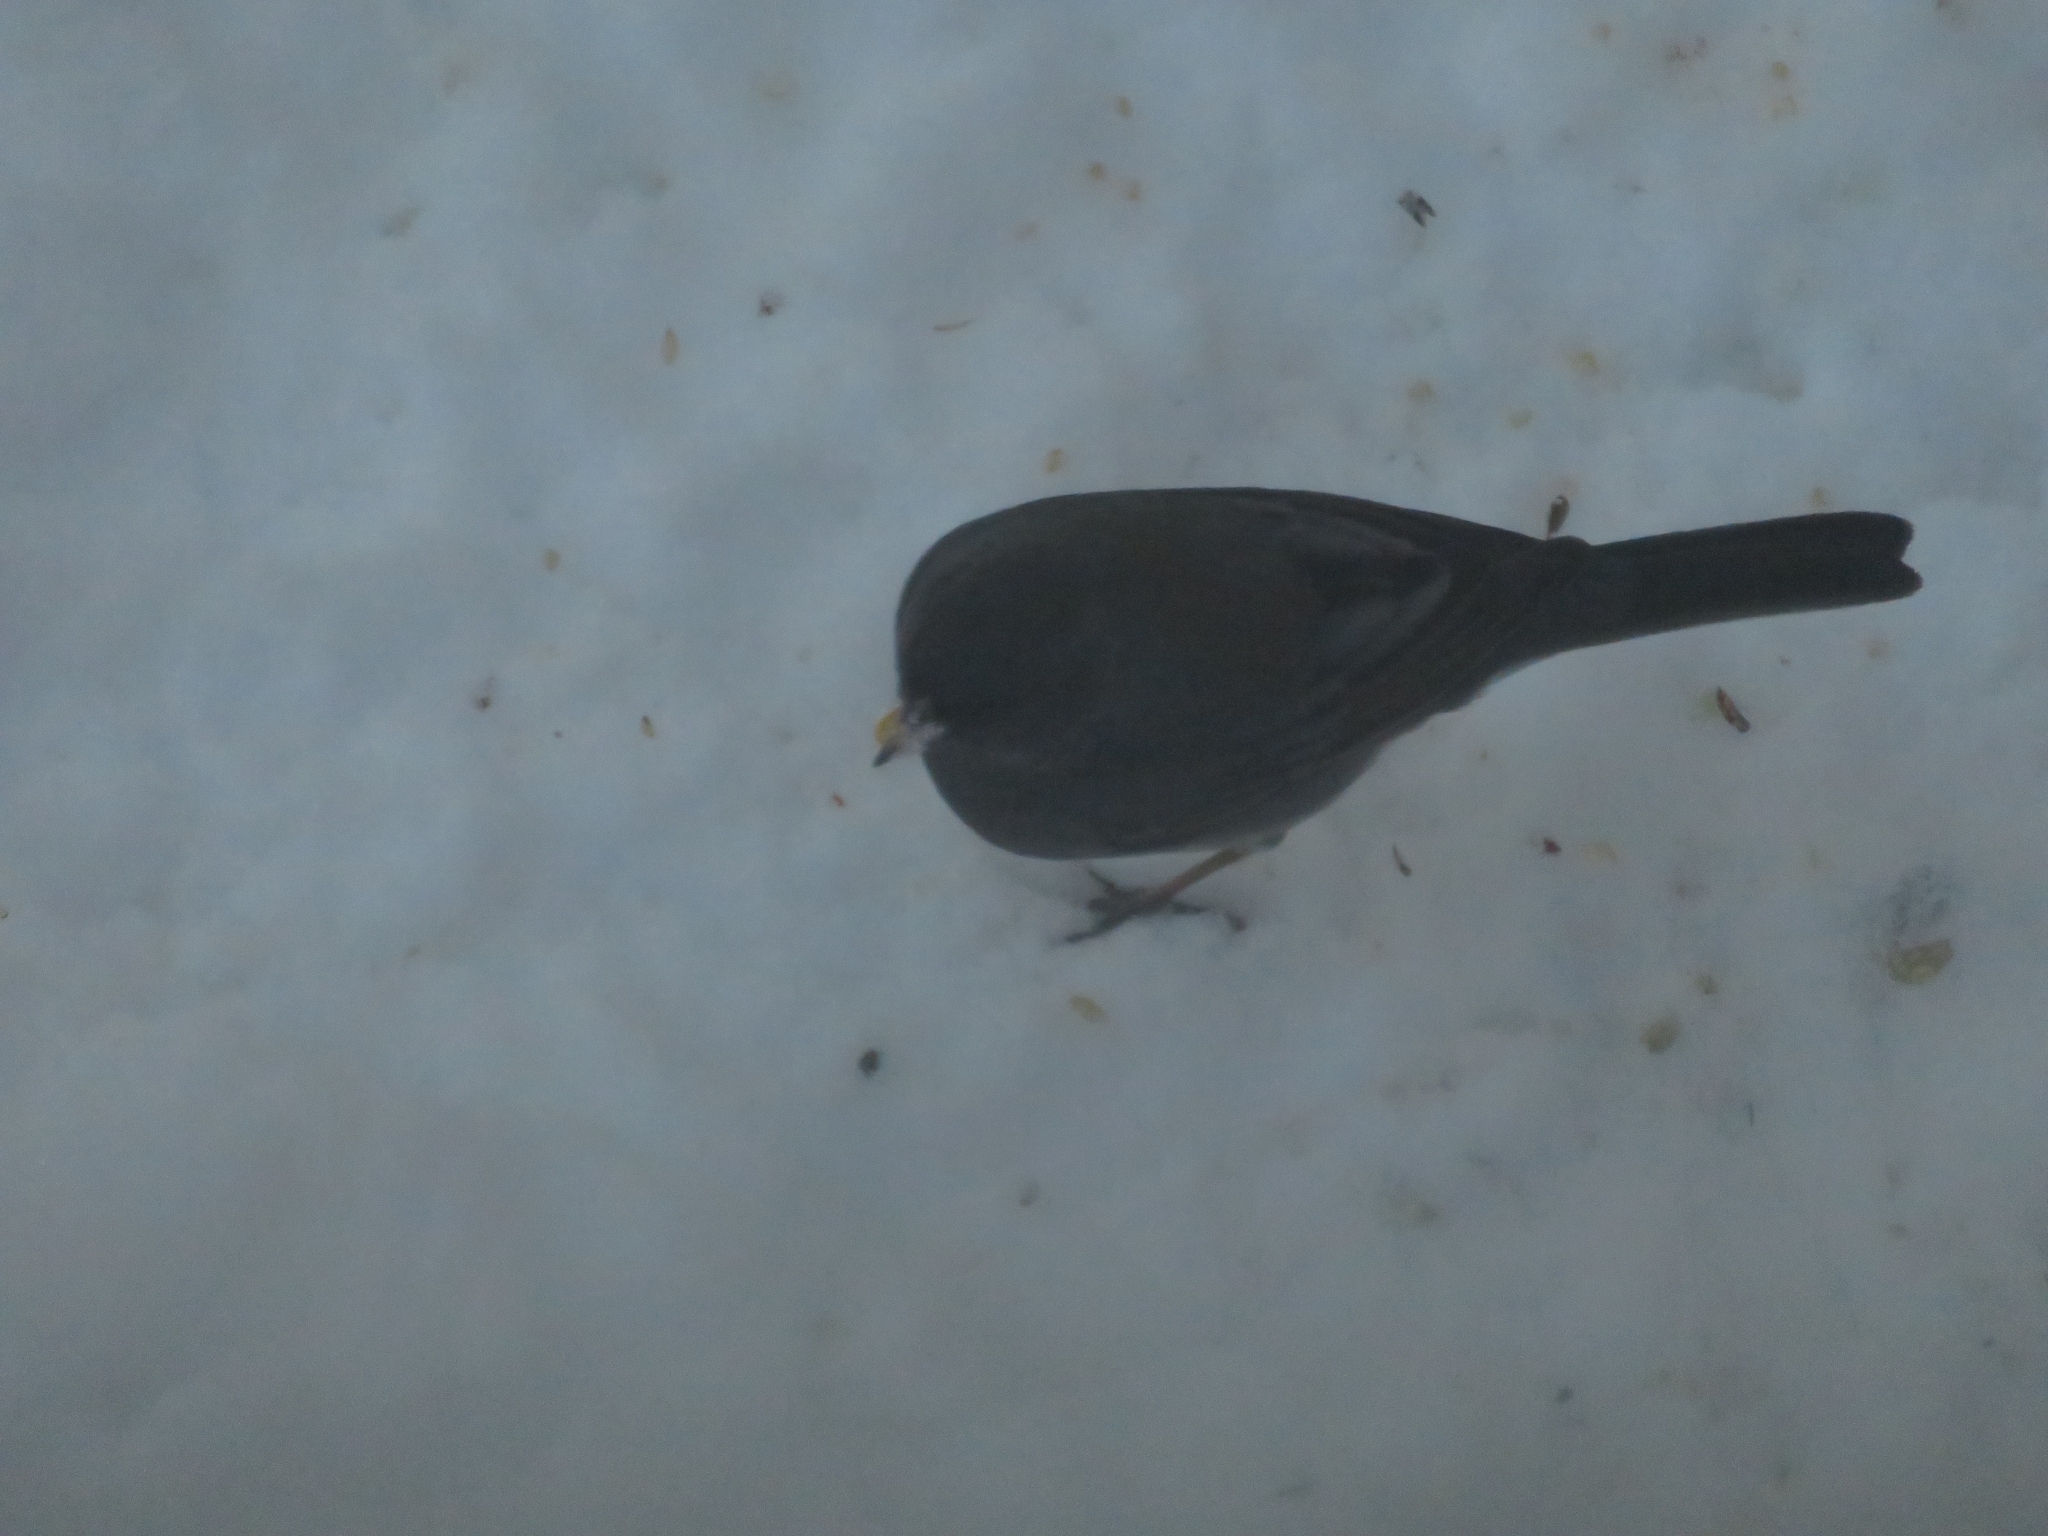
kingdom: Animalia
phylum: Chordata
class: Aves
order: Passeriformes
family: Passerellidae
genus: Junco
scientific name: Junco hyemalis
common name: Dark-eyed junco
